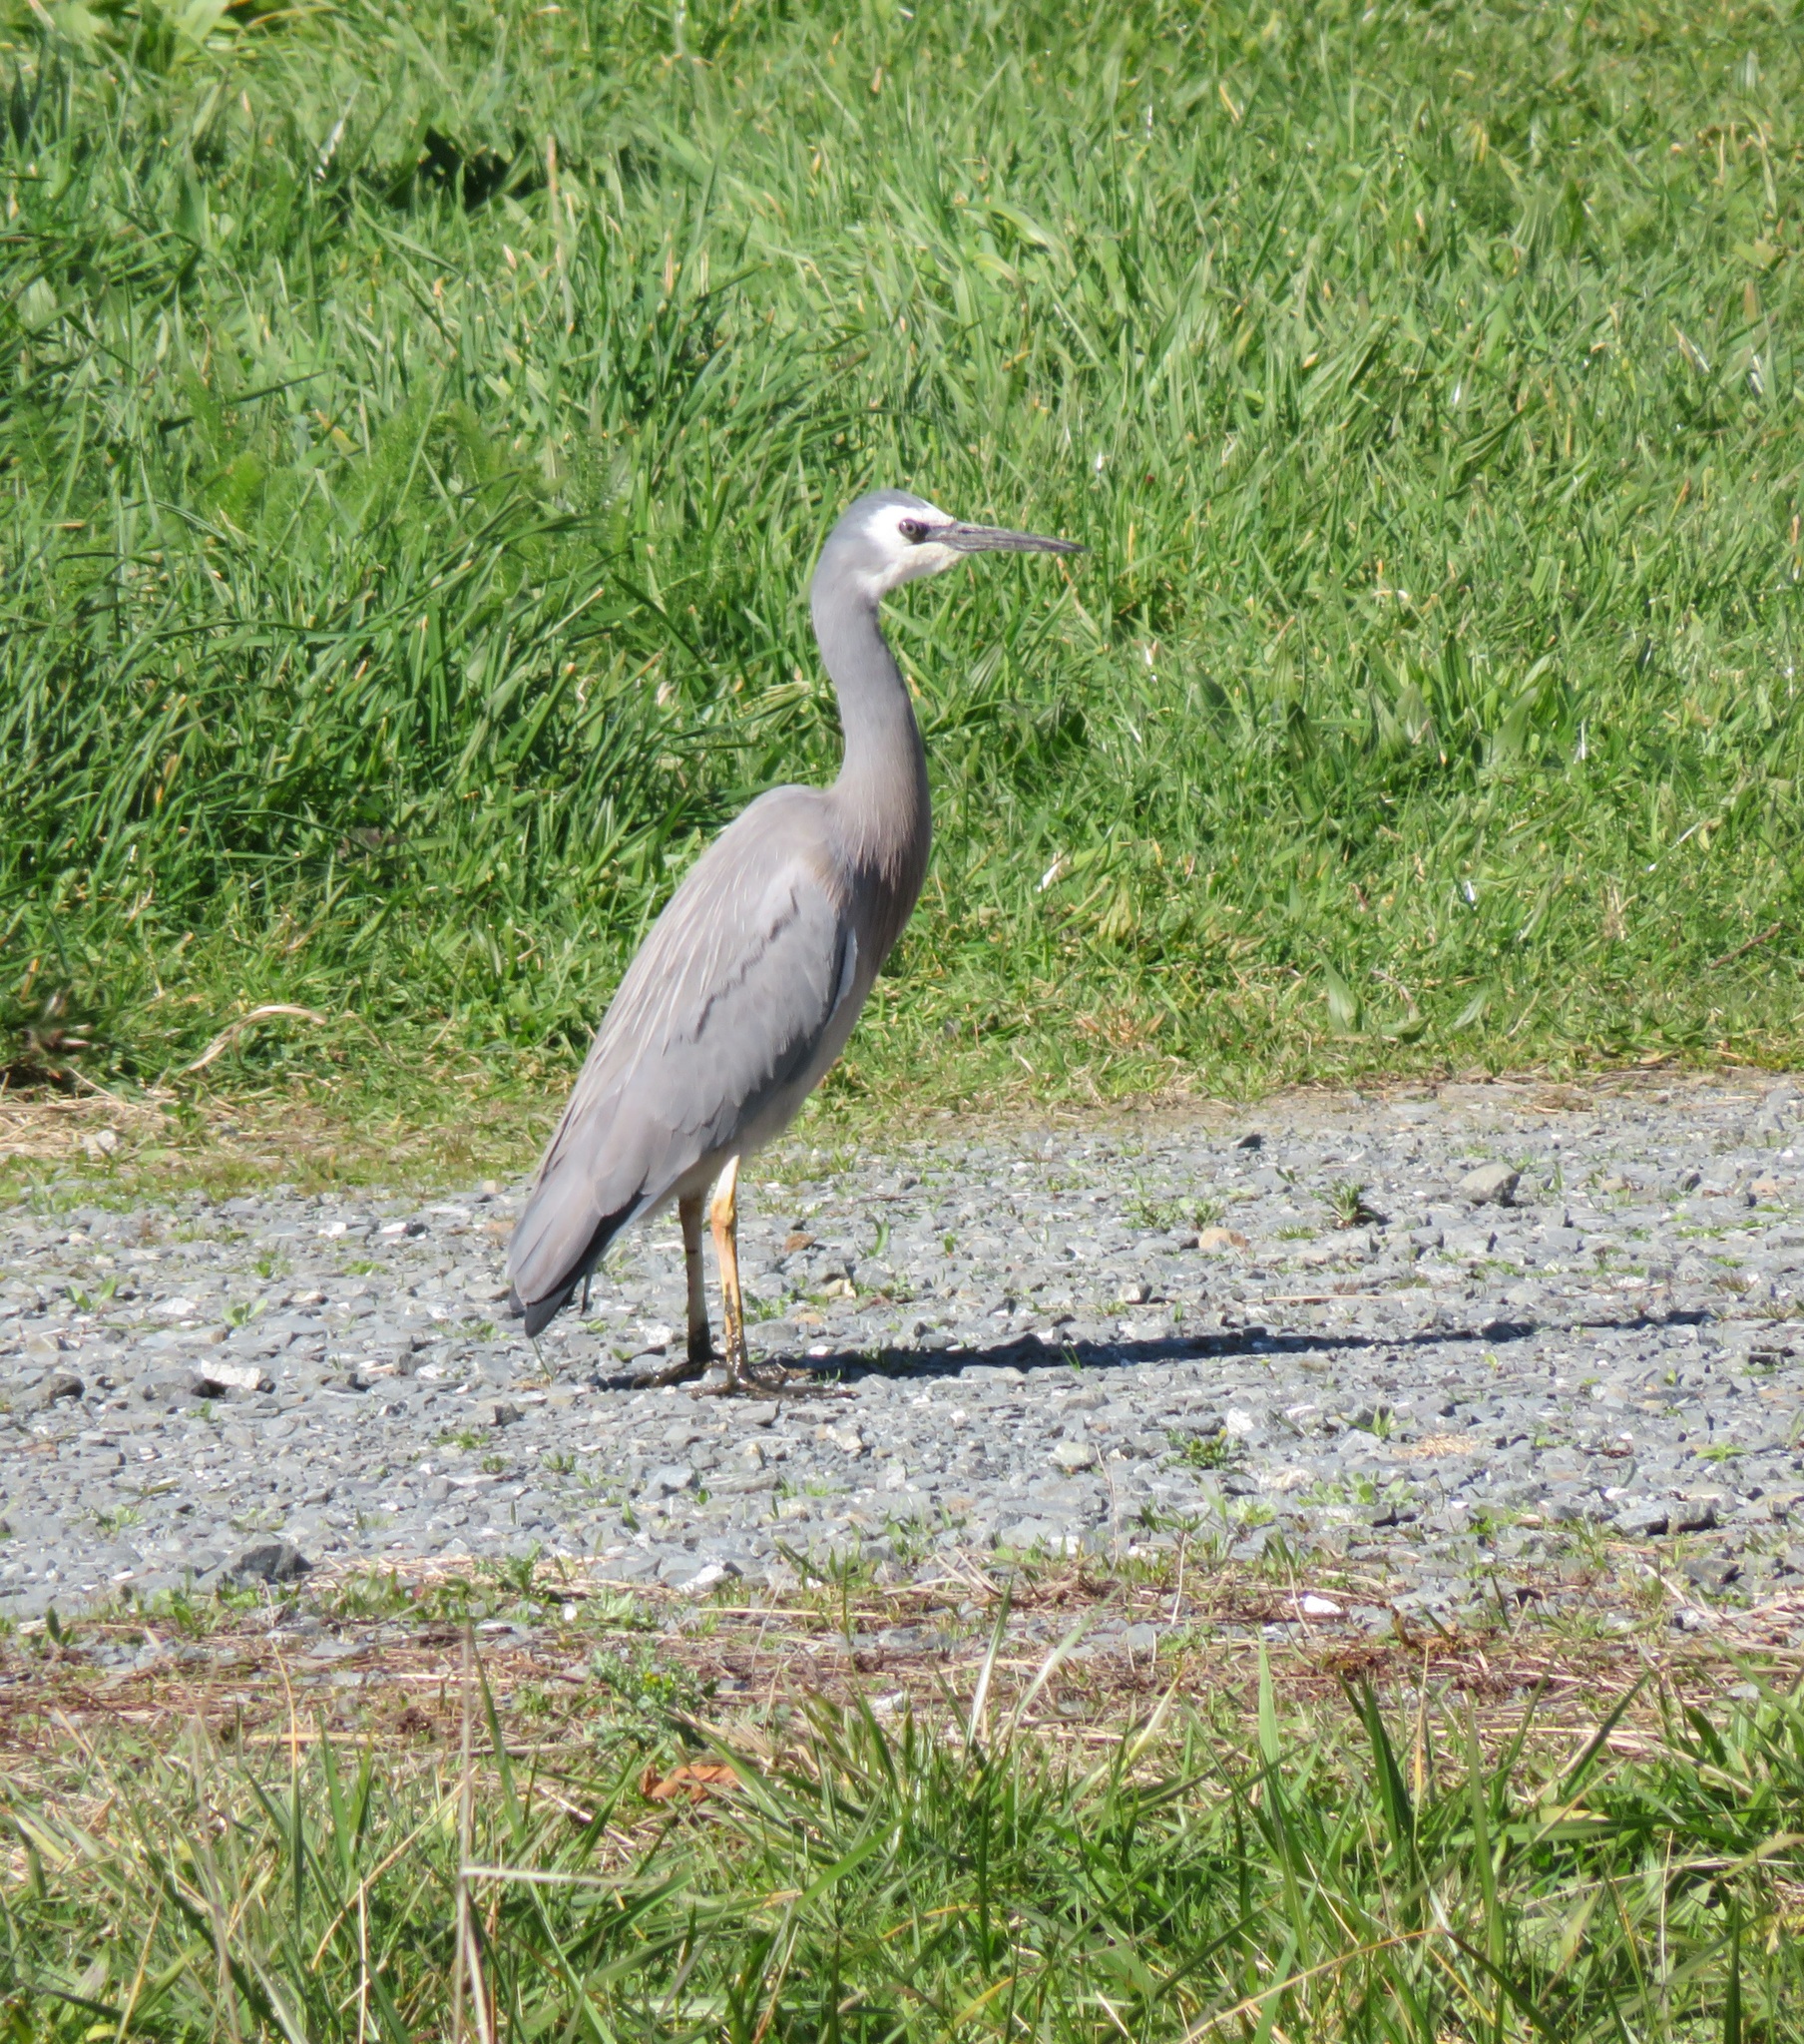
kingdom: Animalia
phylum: Chordata
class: Aves
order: Pelecaniformes
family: Ardeidae
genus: Egretta
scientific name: Egretta novaehollandiae
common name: White-faced heron
